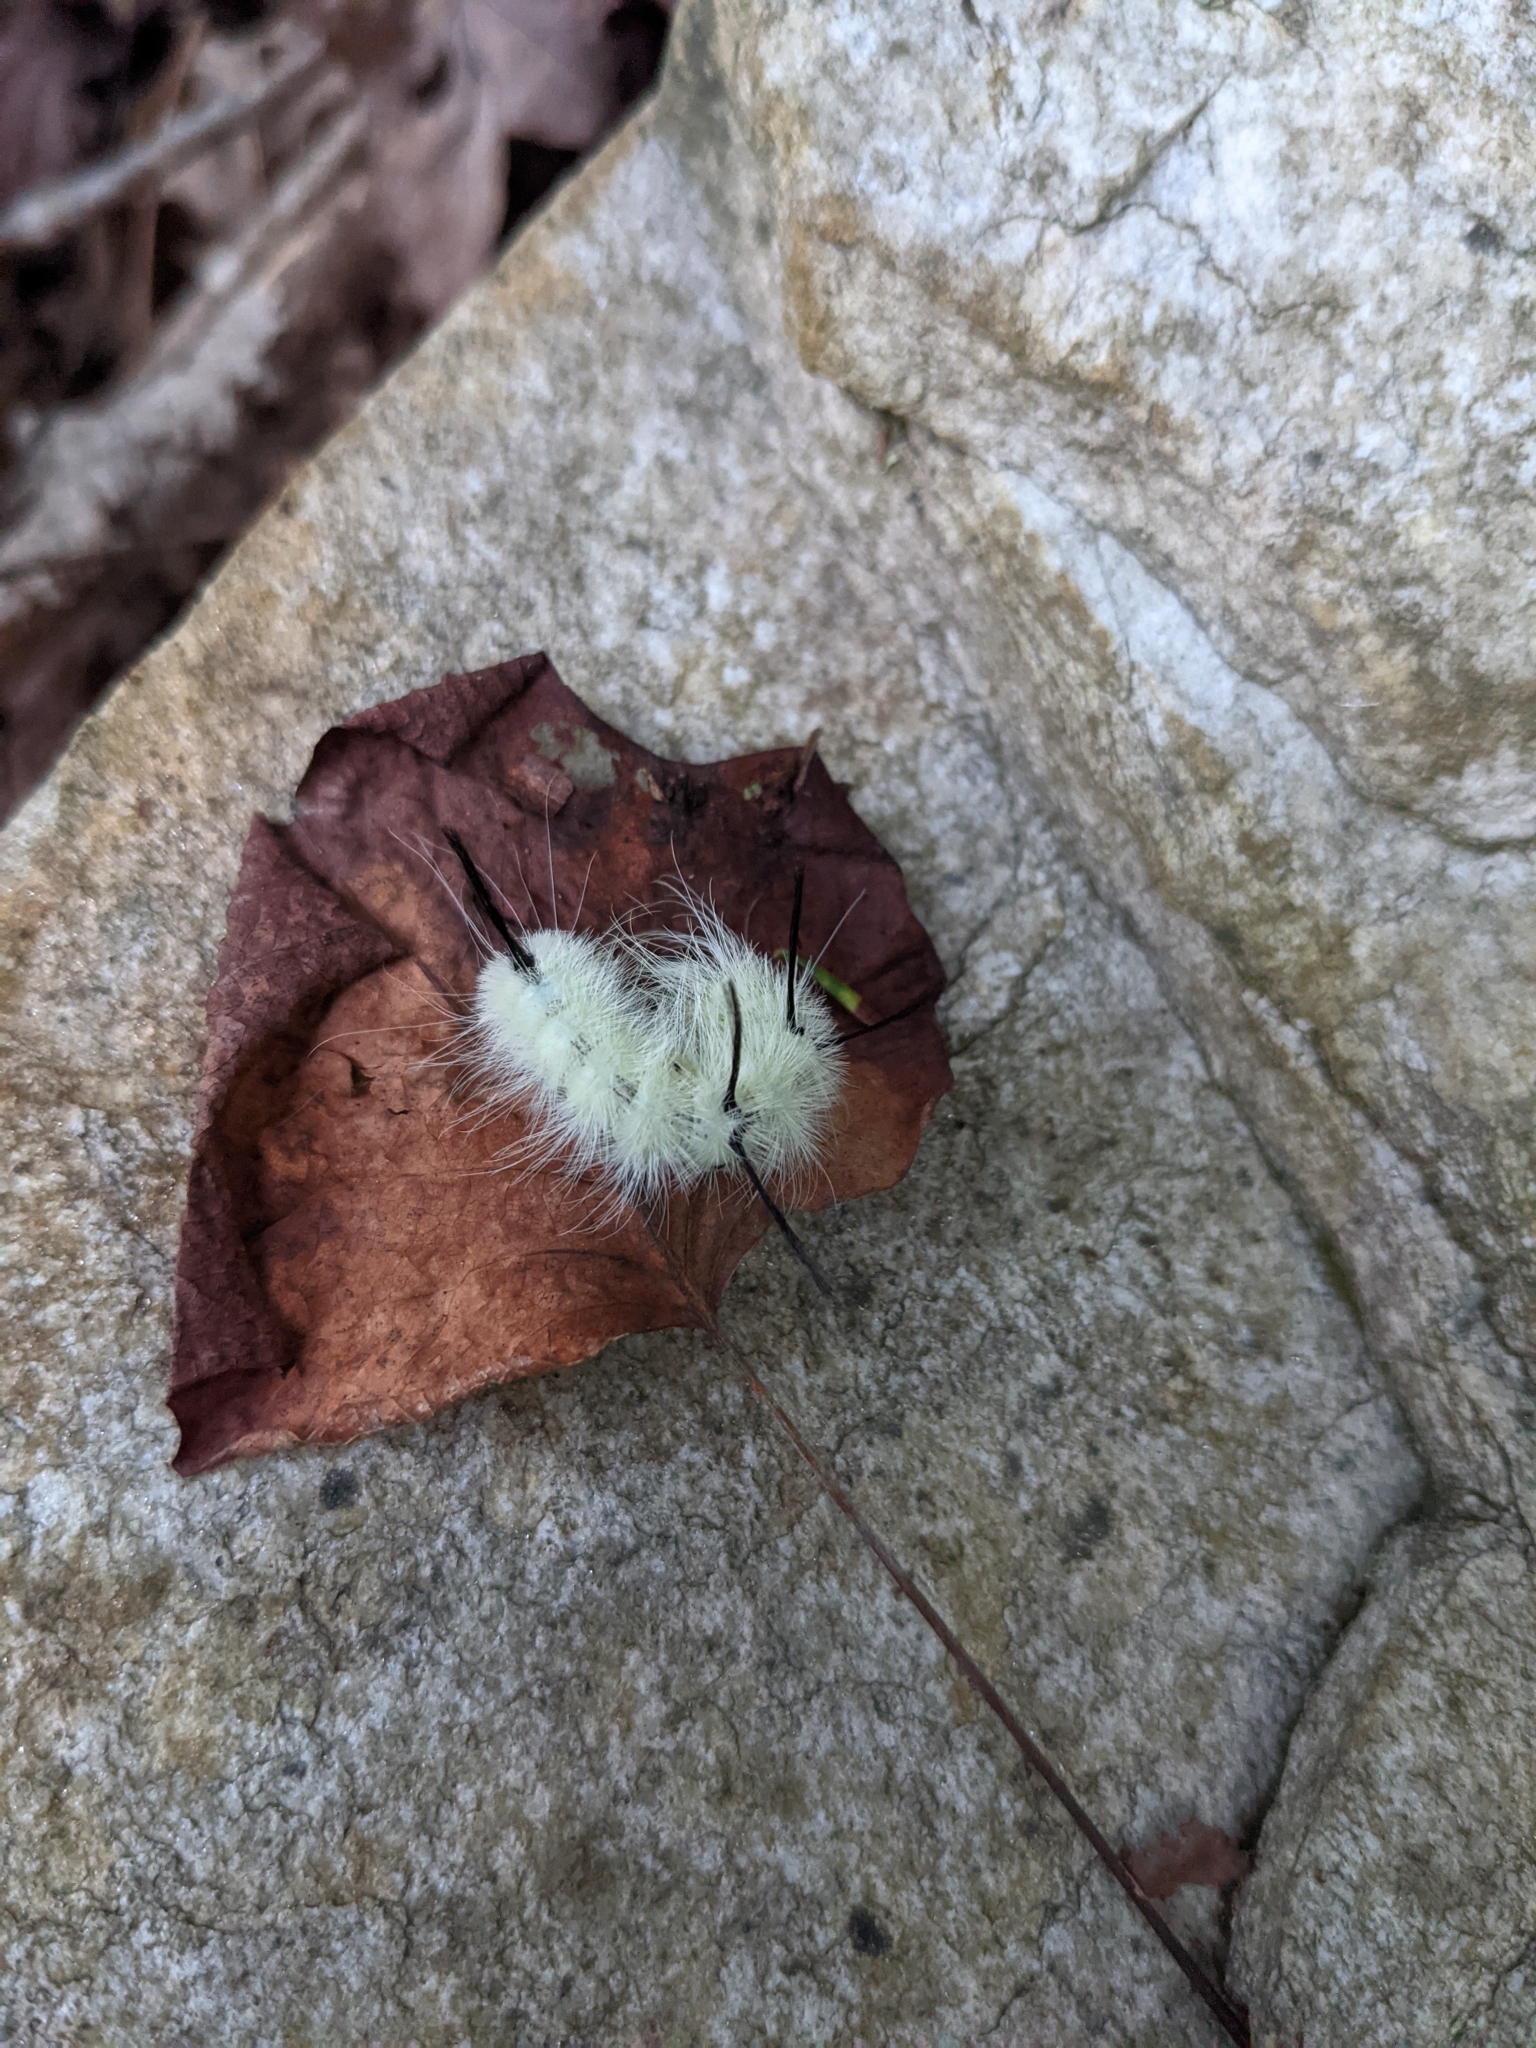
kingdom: Animalia
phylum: Arthropoda
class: Insecta
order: Lepidoptera
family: Noctuidae
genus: Acronicta
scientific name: Acronicta americana
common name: American dagger
